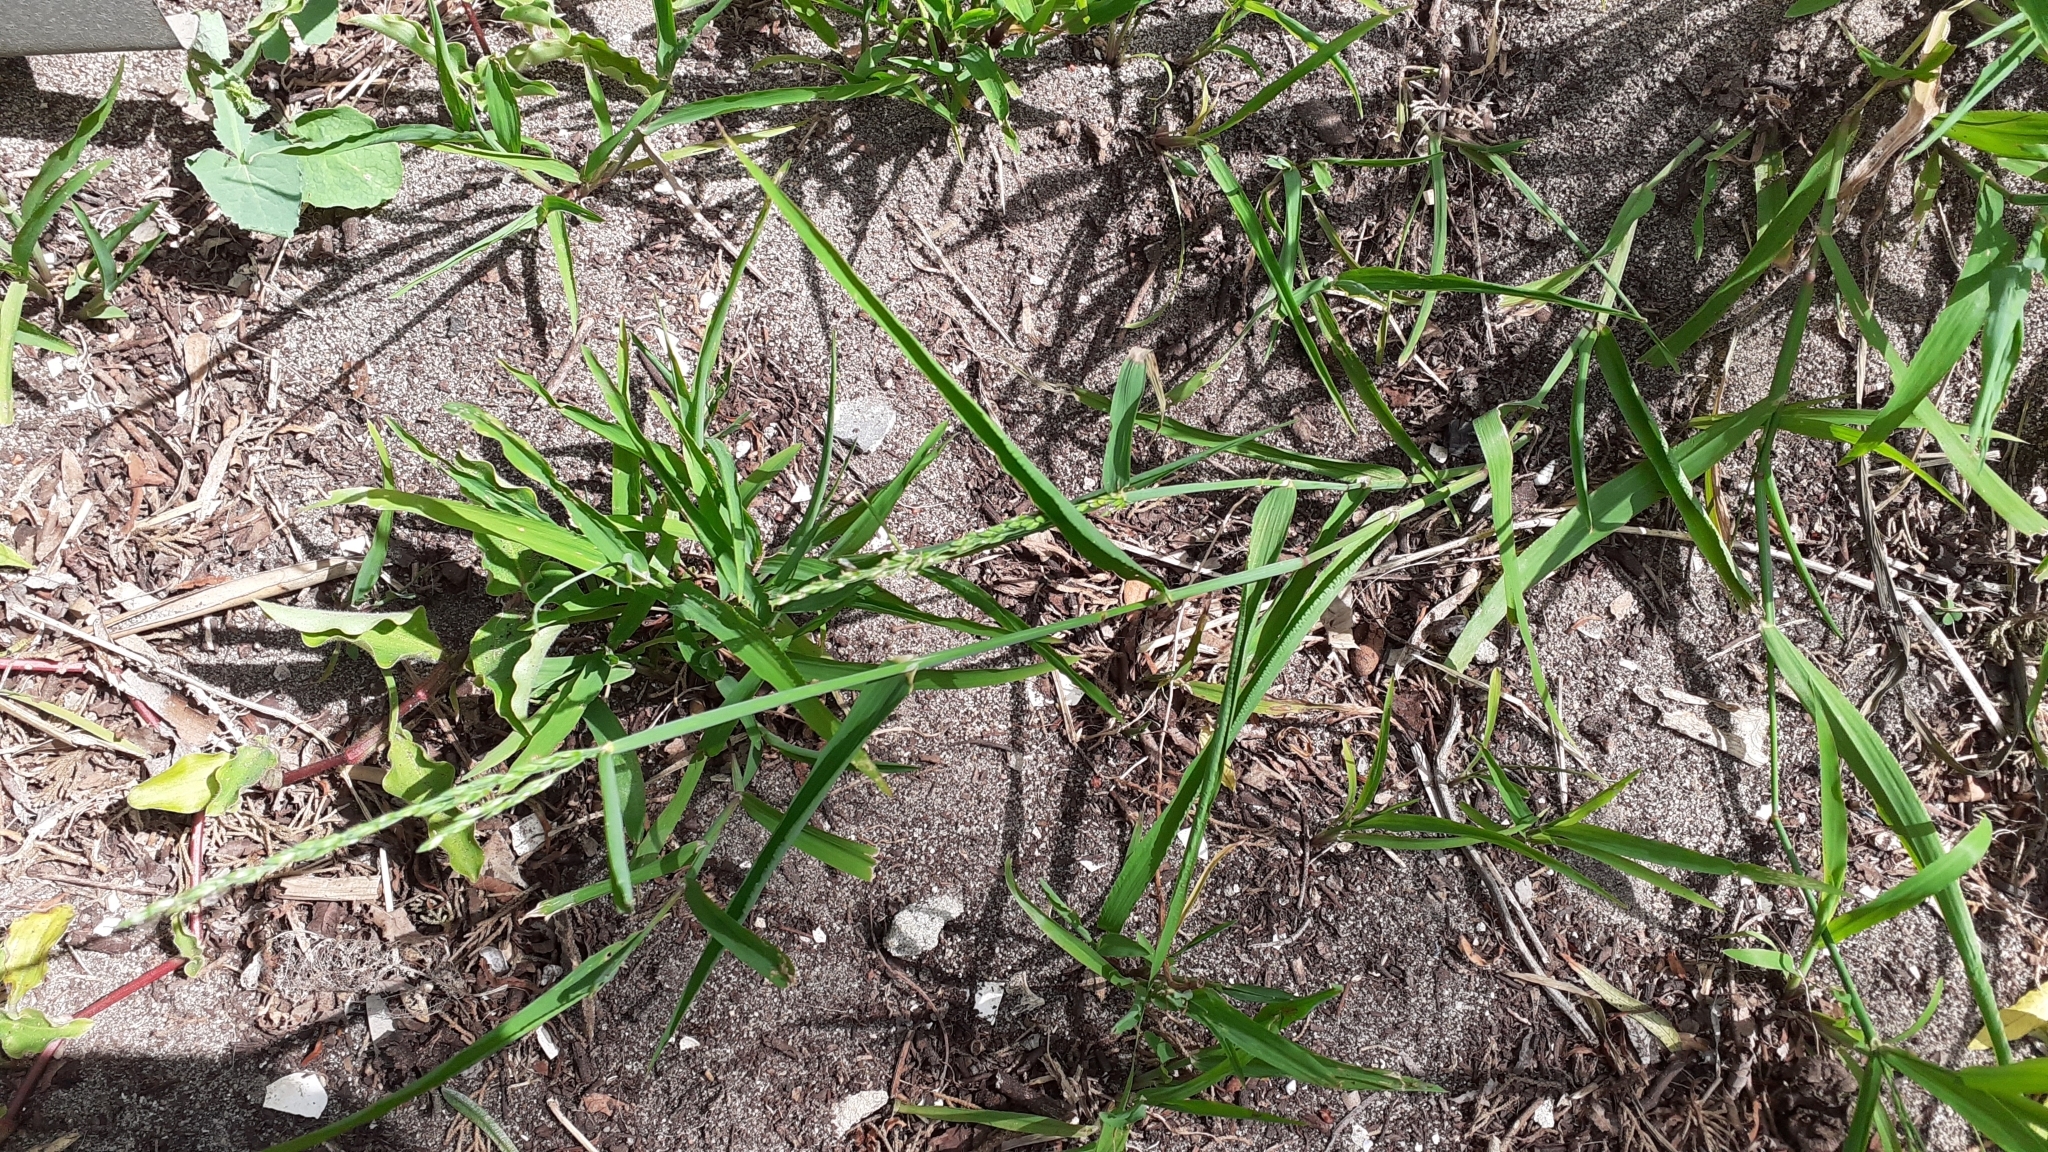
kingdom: Plantae
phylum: Tracheophyta
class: Liliopsida
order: Poales
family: Poaceae
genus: Ehrharta
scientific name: Ehrharta erecta
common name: Panic veldtgrass
